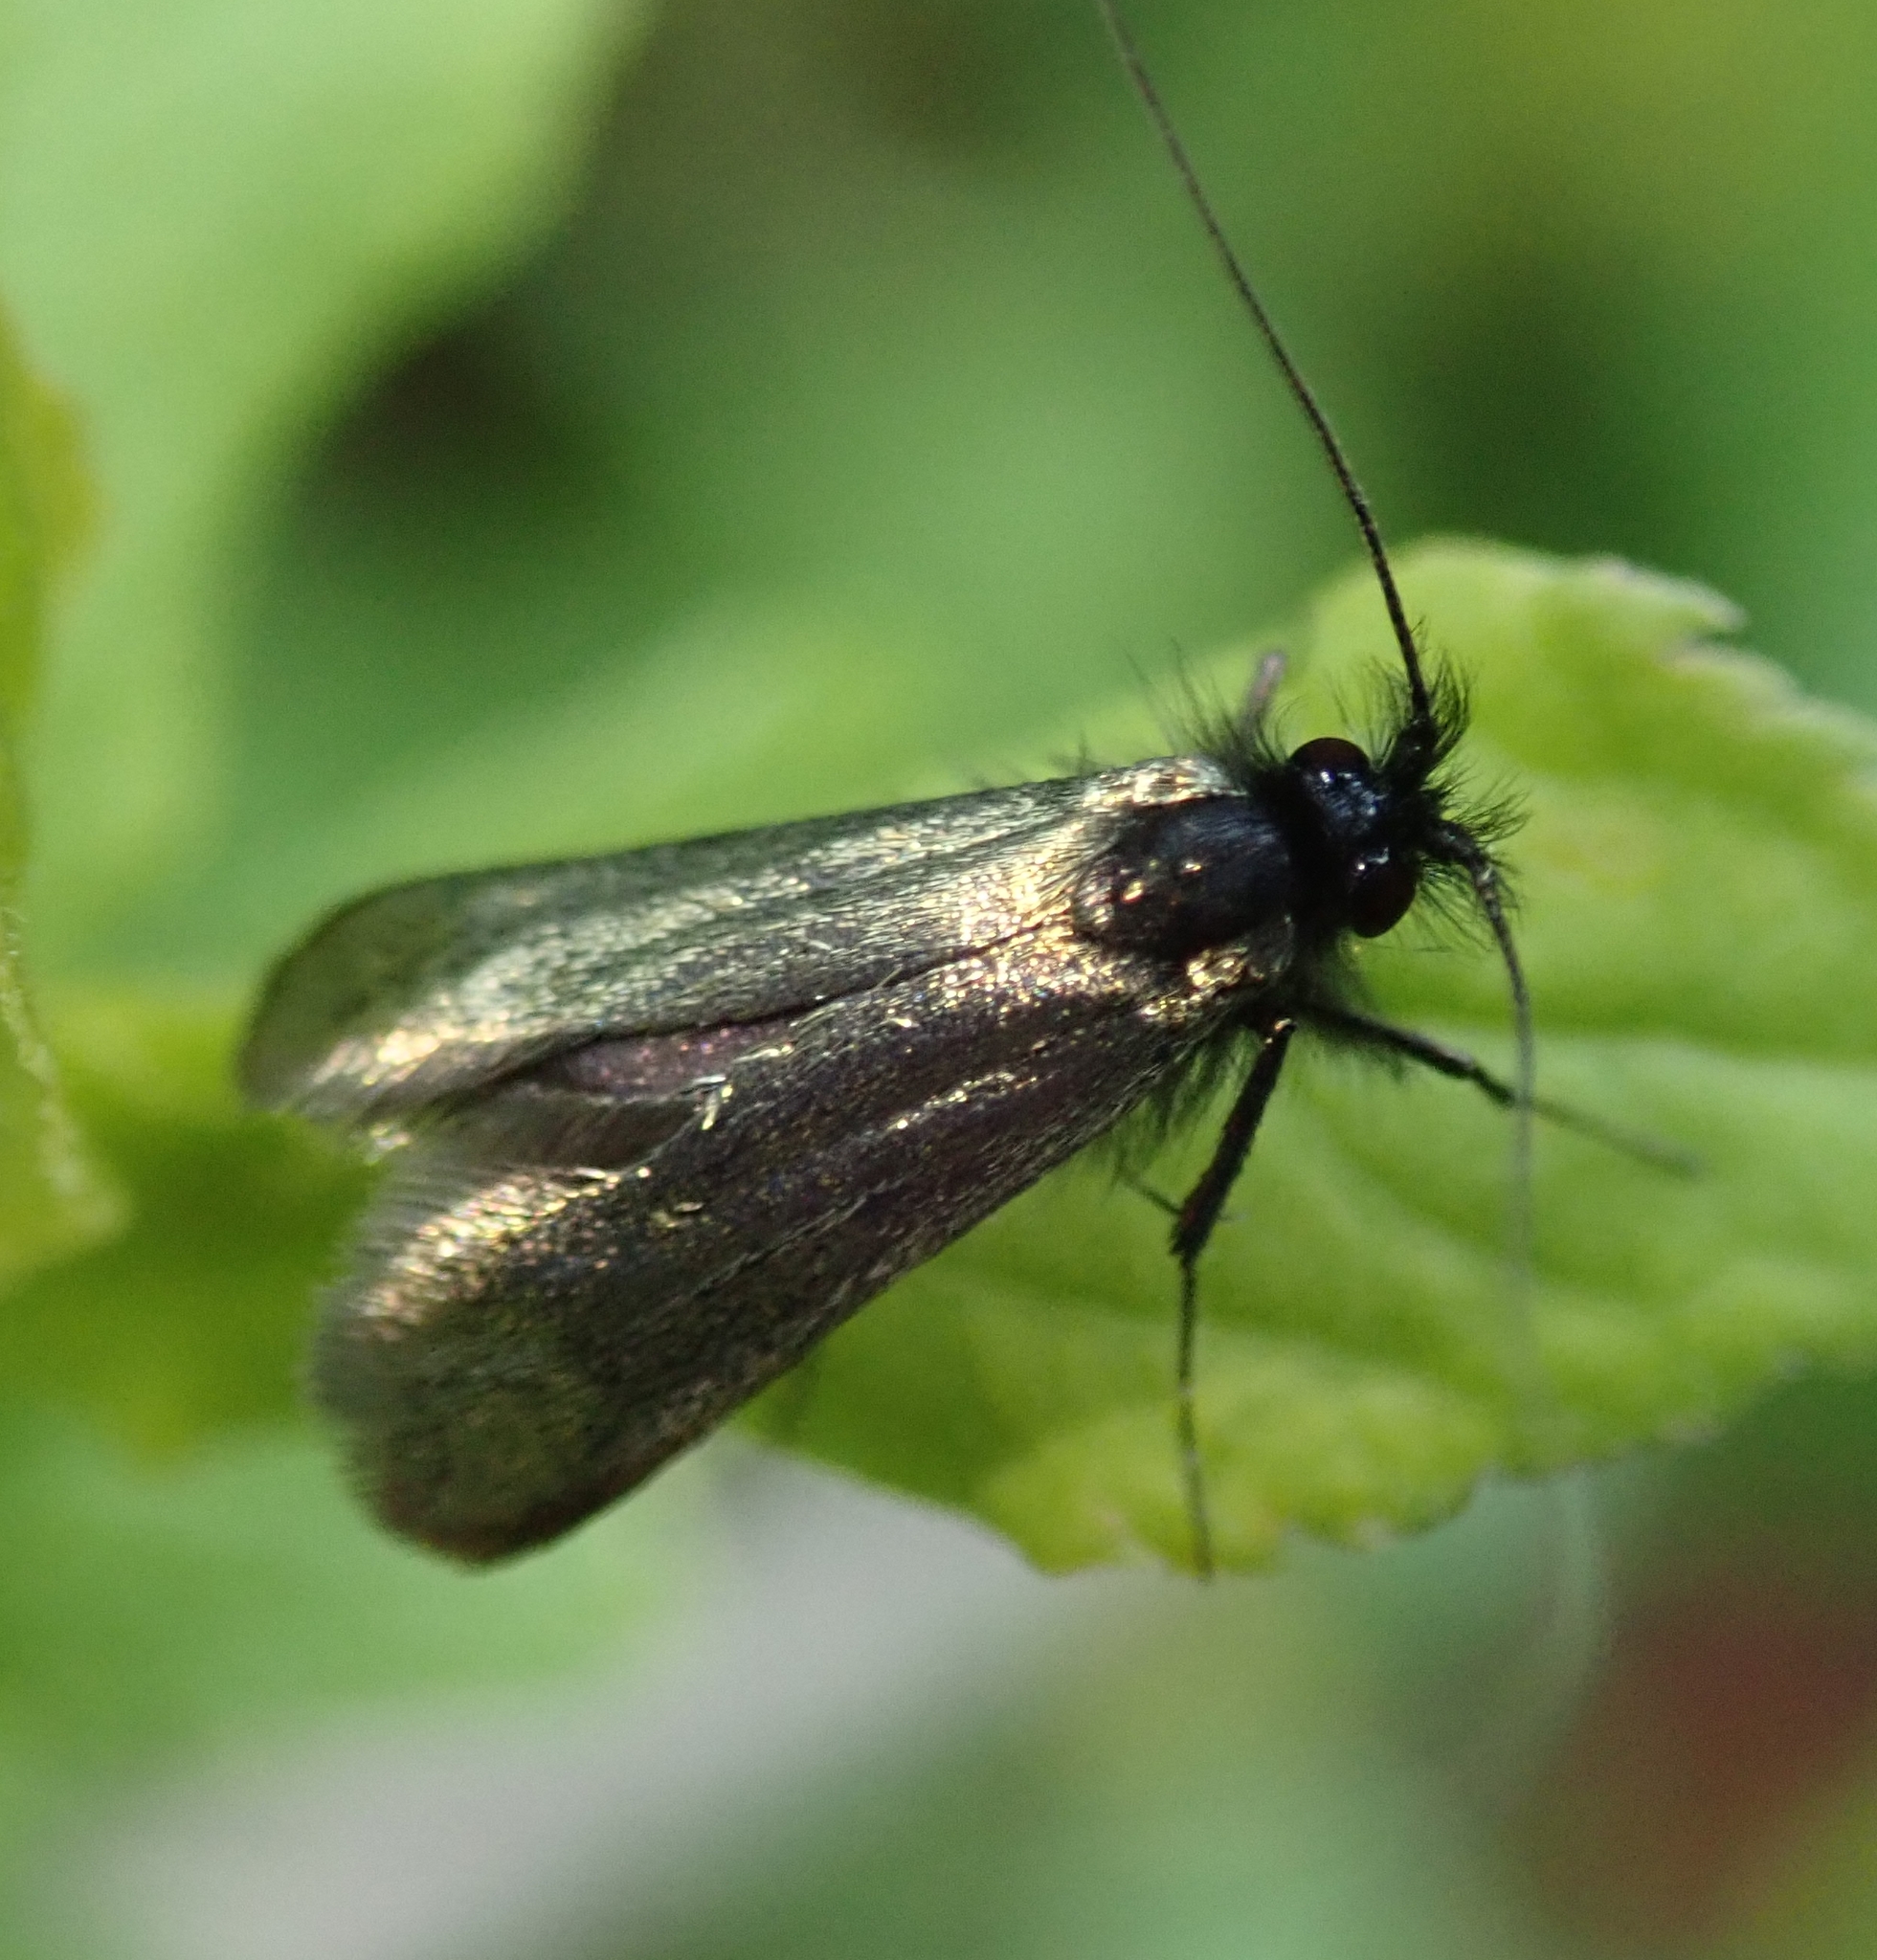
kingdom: Animalia
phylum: Arthropoda
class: Insecta
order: Lepidoptera
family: Adelidae
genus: Adela
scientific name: Adela viridella
